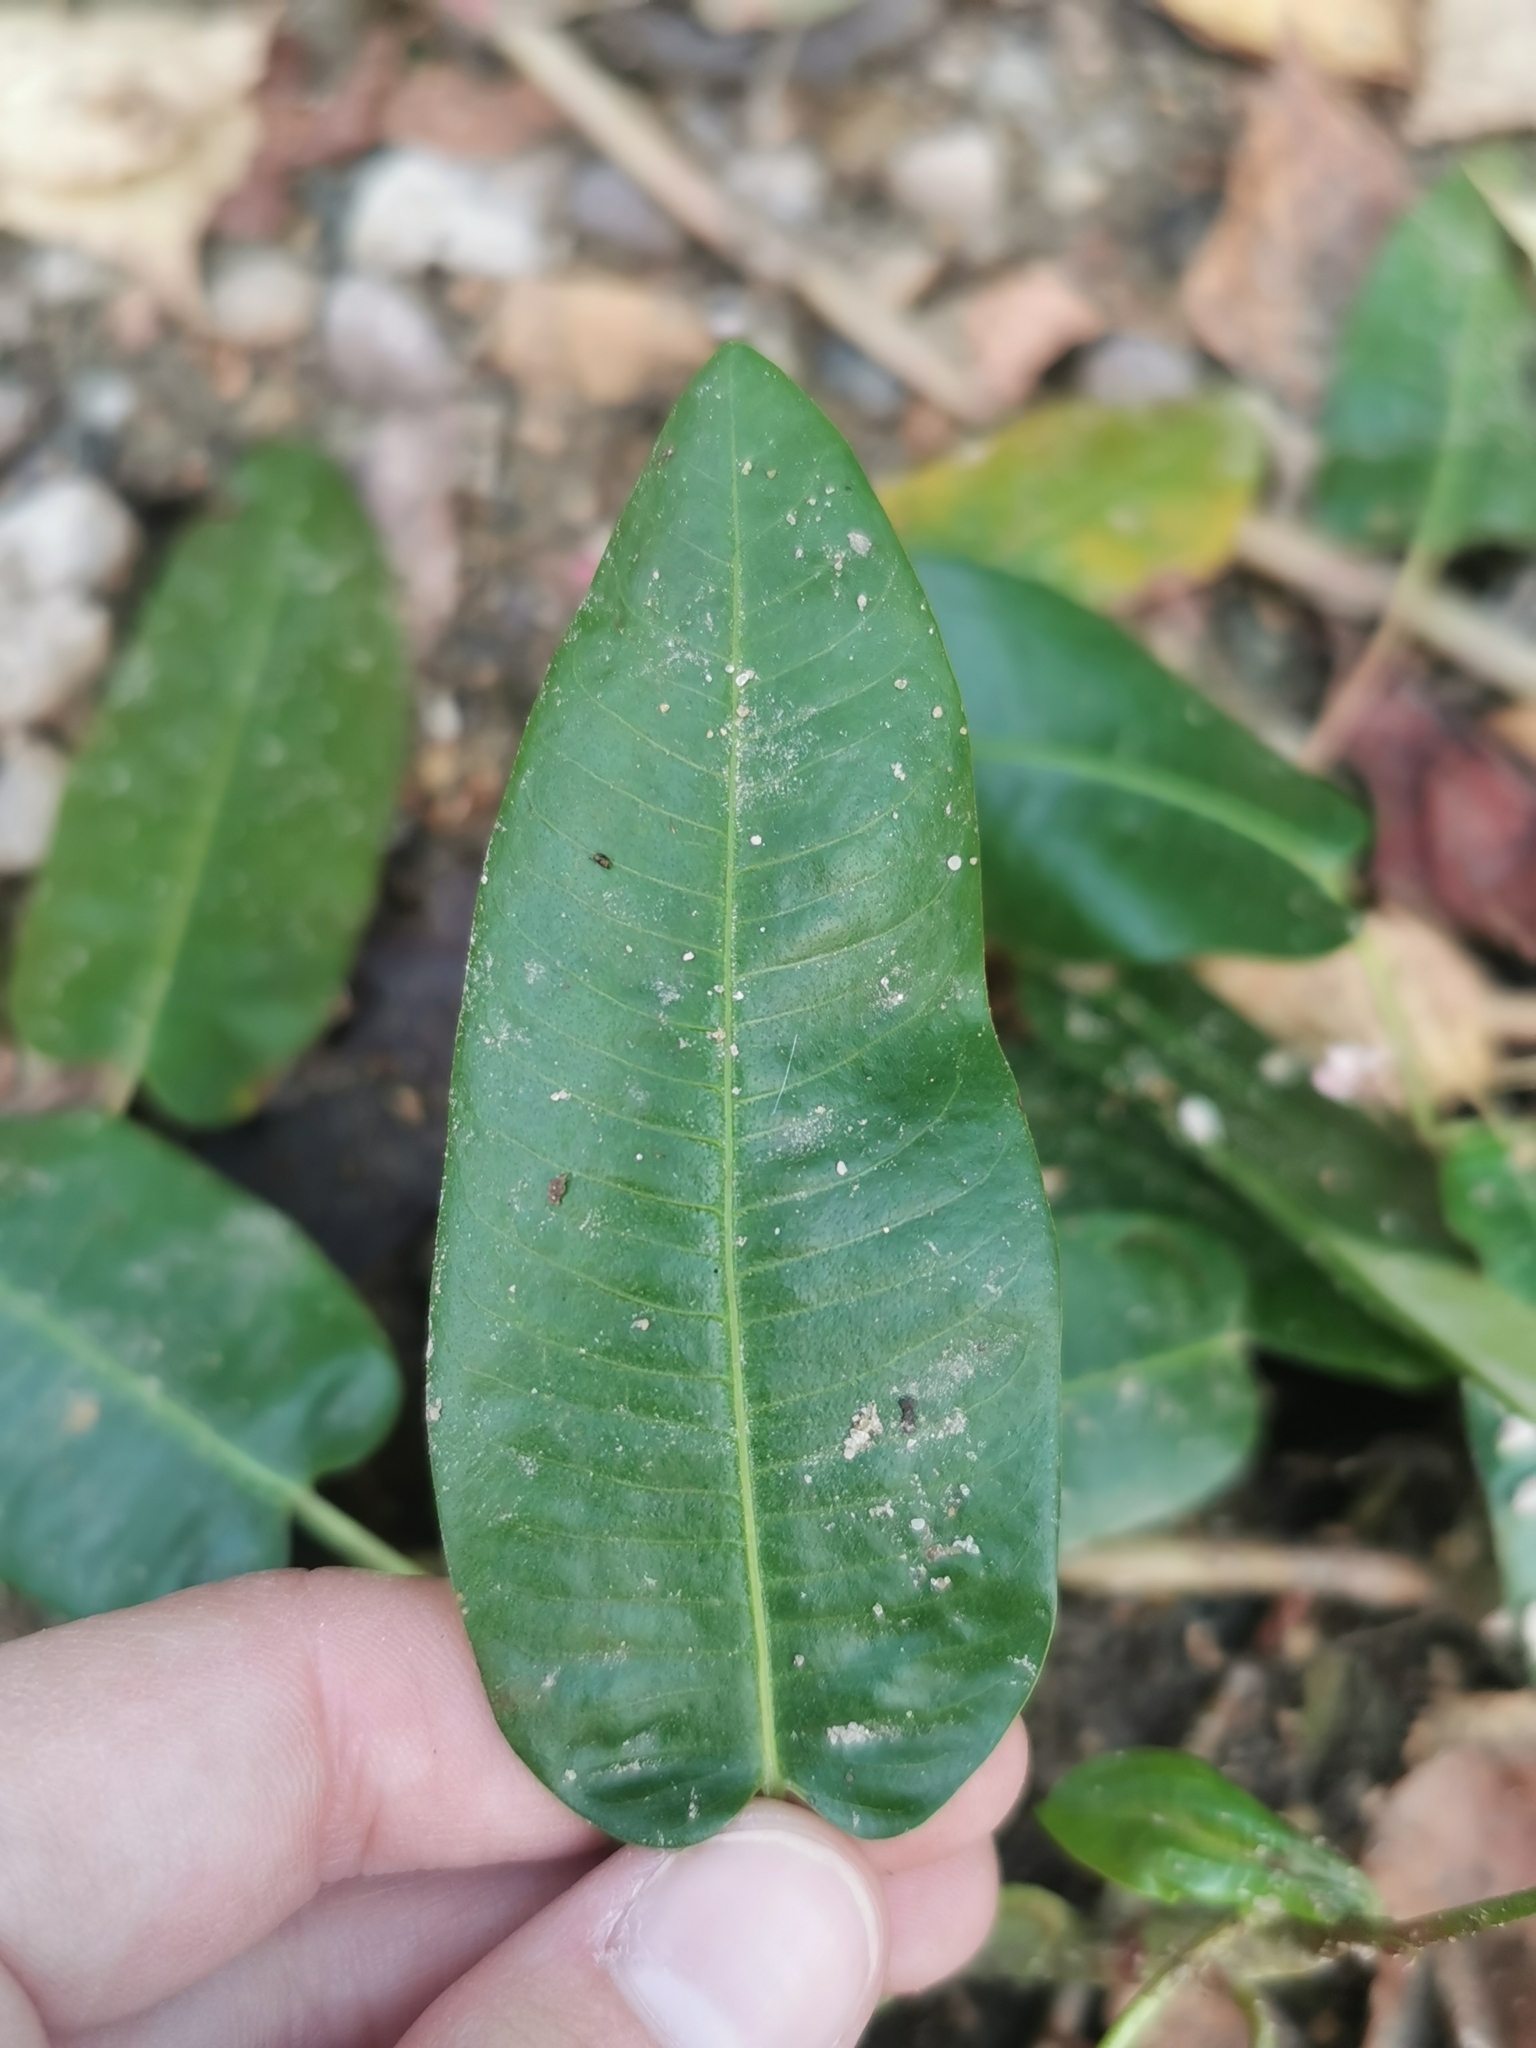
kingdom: Plantae
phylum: Tracheophyta
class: Magnoliopsida
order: Caryophyllales
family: Polygonaceae
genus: Persicaria
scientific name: Persicaria amphibia
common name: Amphibious bistort
